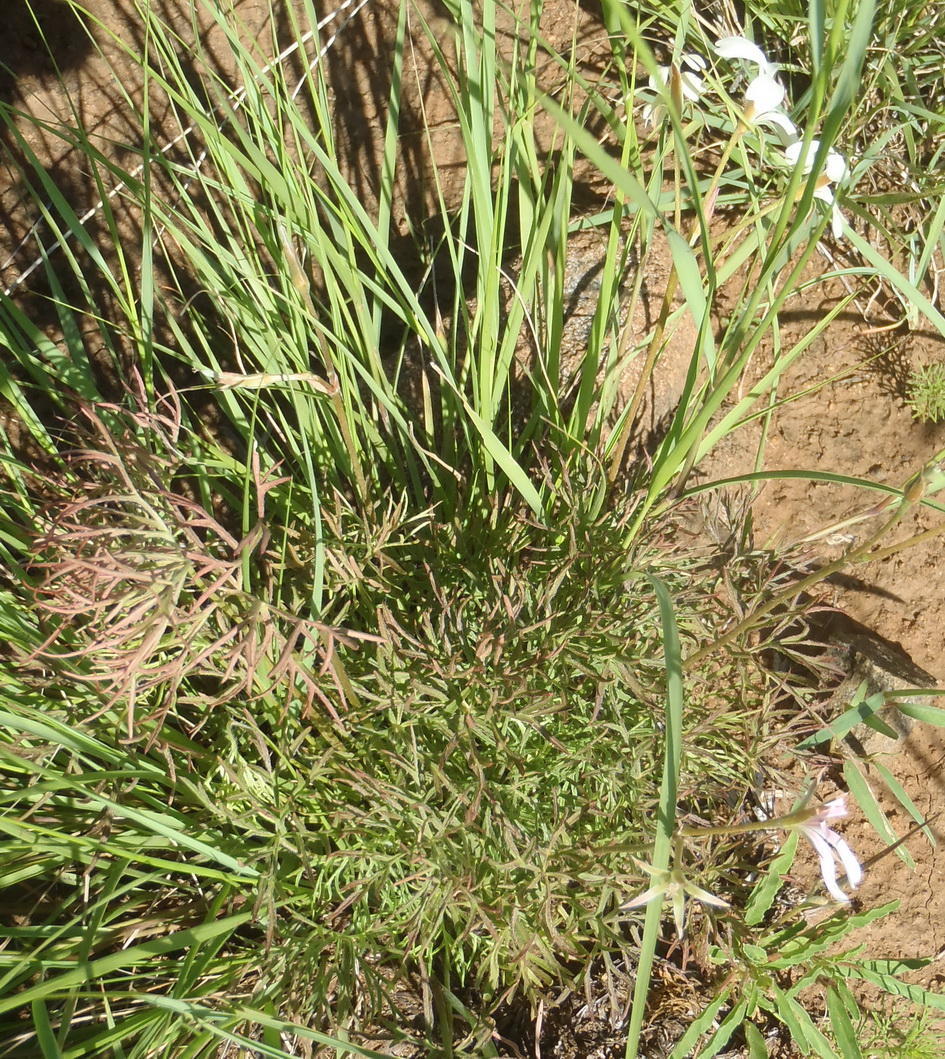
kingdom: Plantae
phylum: Tracheophyta
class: Magnoliopsida
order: Geraniales
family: Geraniaceae
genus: Pelargonium
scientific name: Pelargonium aridum
